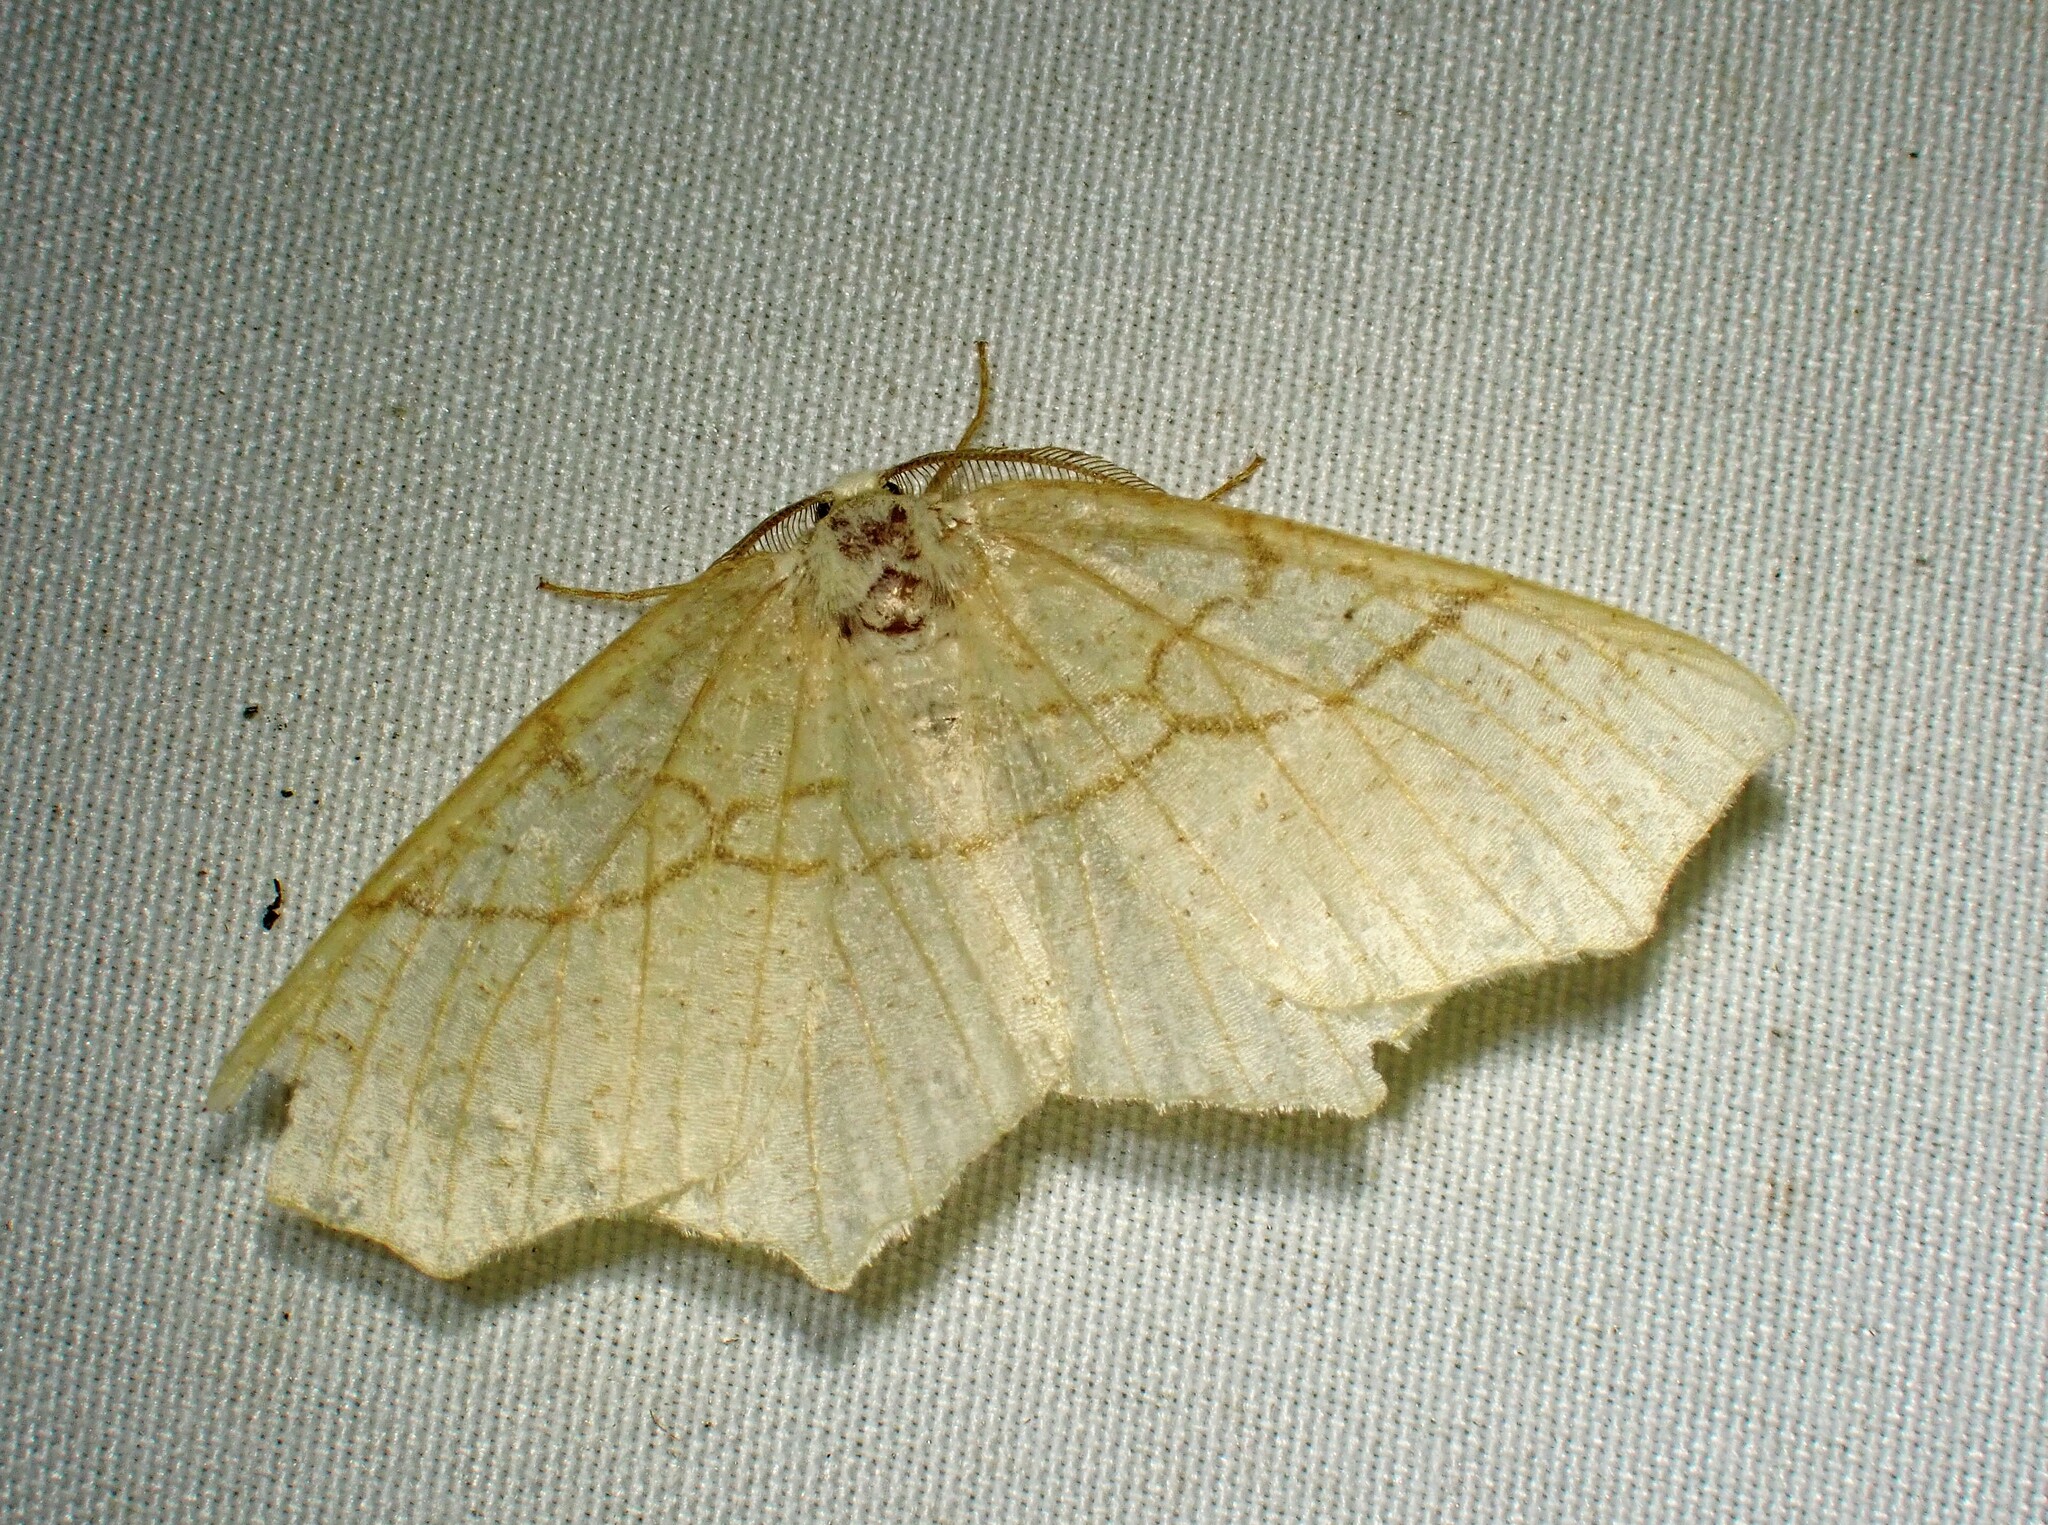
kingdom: Animalia
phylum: Arthropoda
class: Insecta
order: Lepidoptera
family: Geometridae
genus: Besma
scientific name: Besma quercivoraria
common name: Oak besma
